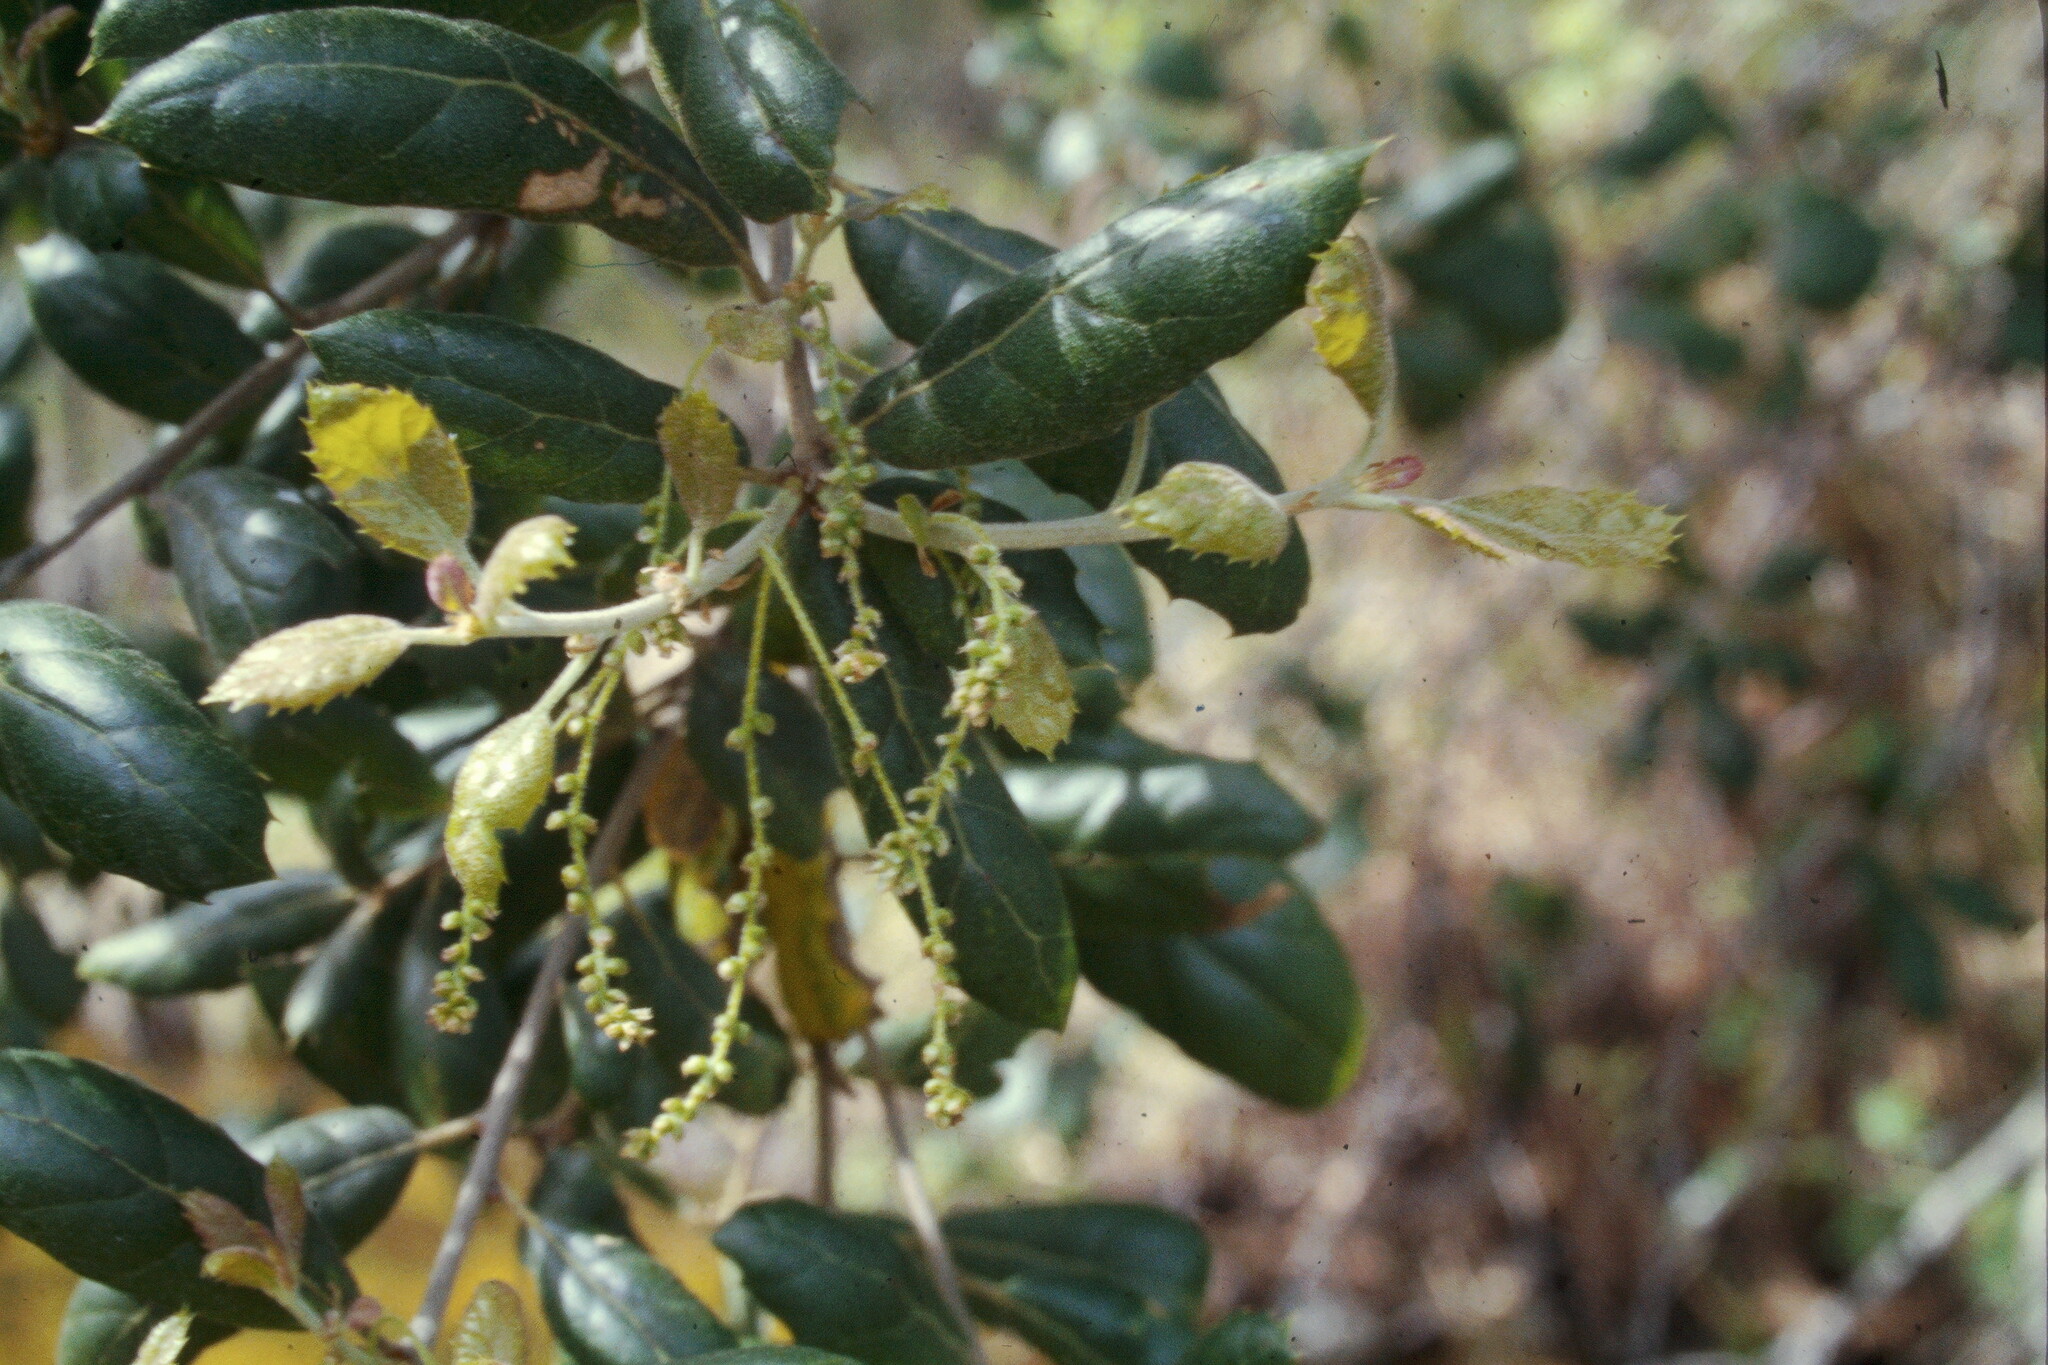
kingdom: Plantae
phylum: Tracheophyta
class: Magnoliopsida
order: Fagales
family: Fagaceae
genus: Quercus
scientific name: Quercus agrifolia
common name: California live oak
